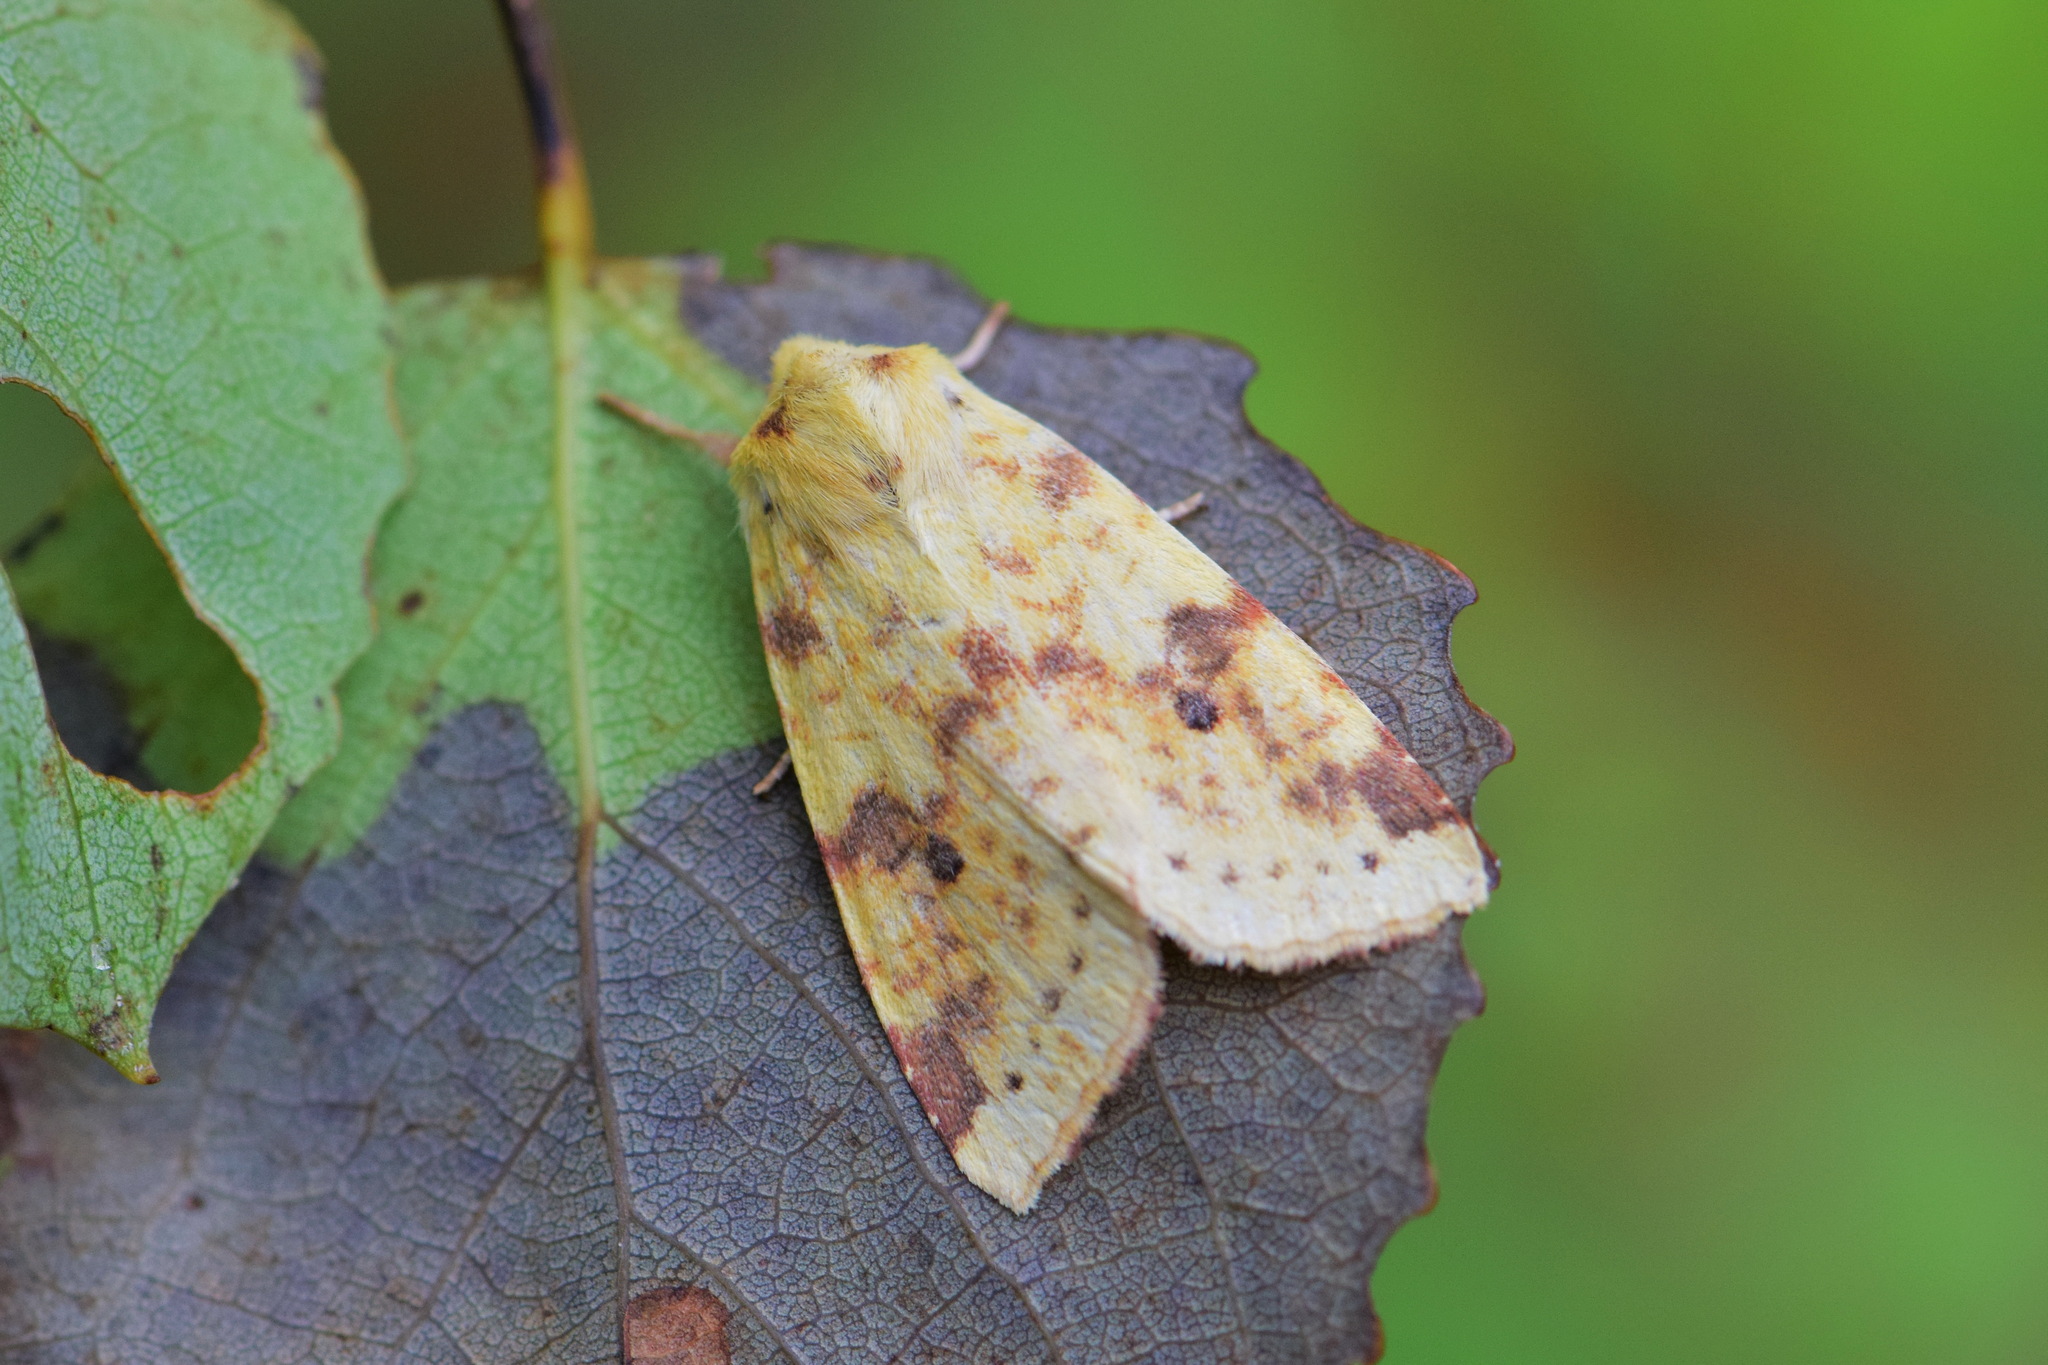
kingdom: Animalia
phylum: Arthropoda
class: Insecta
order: Lepidoptera
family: Noctuidae
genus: Xanthia
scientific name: Xanthia icteritia
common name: The sallow
